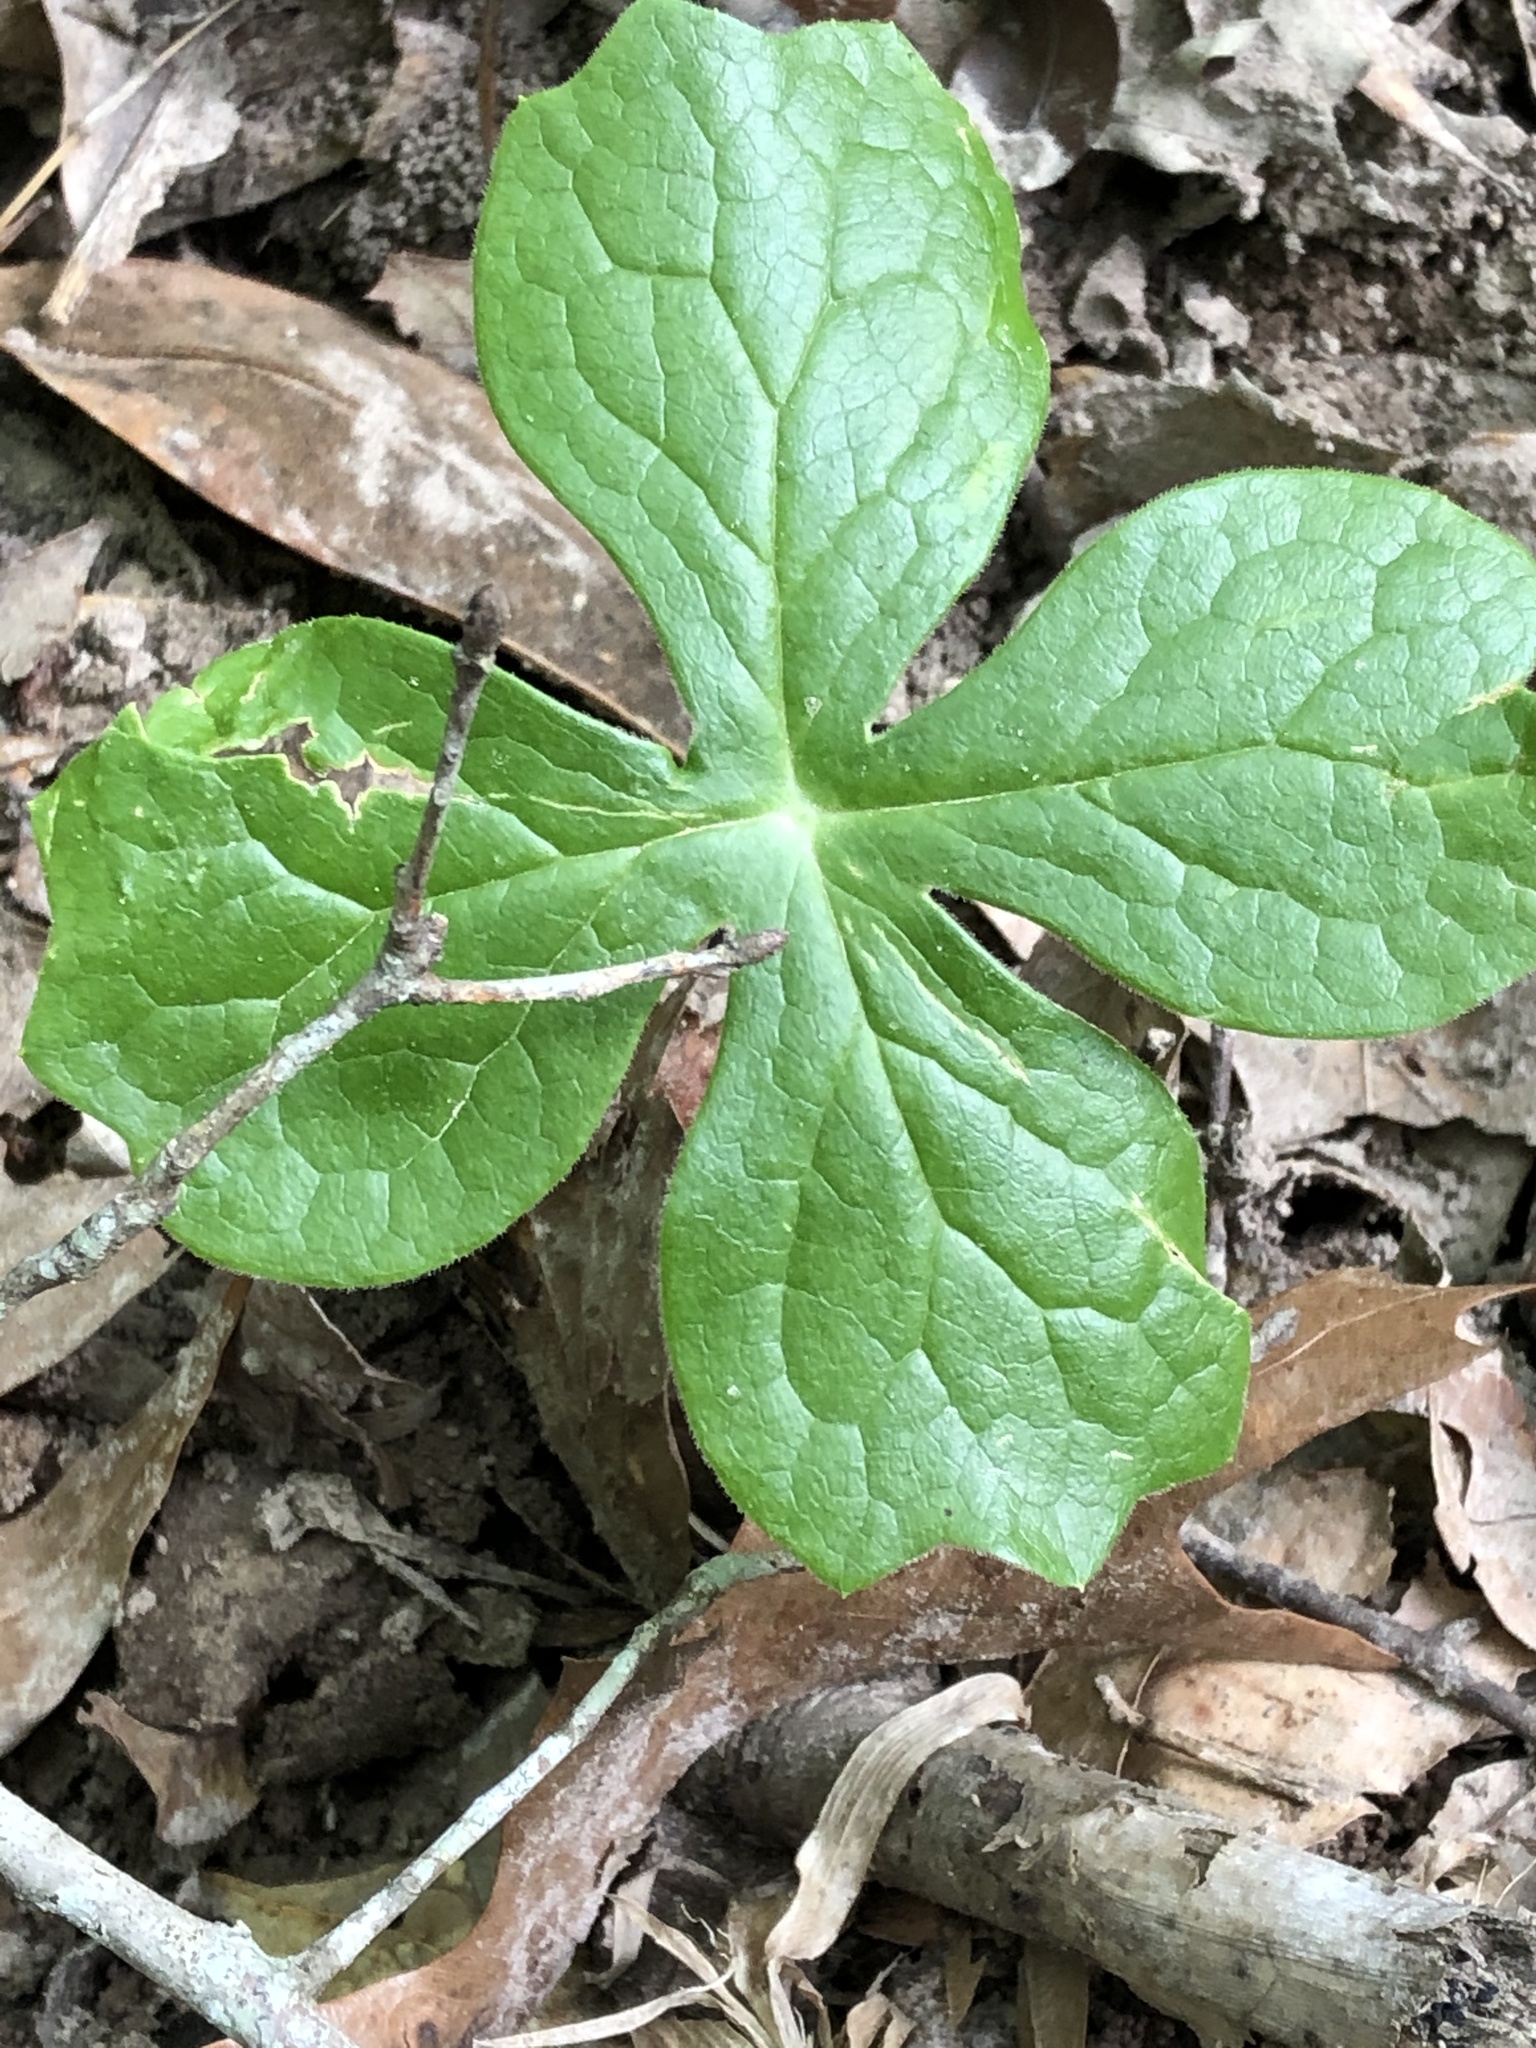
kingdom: Plantae
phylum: Tracheophyta
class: Magnoliopsida
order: Ranunculales
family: Berberidaceae
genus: Podophyllum
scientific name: Podophyllum peltatum
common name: Wild mandrake
